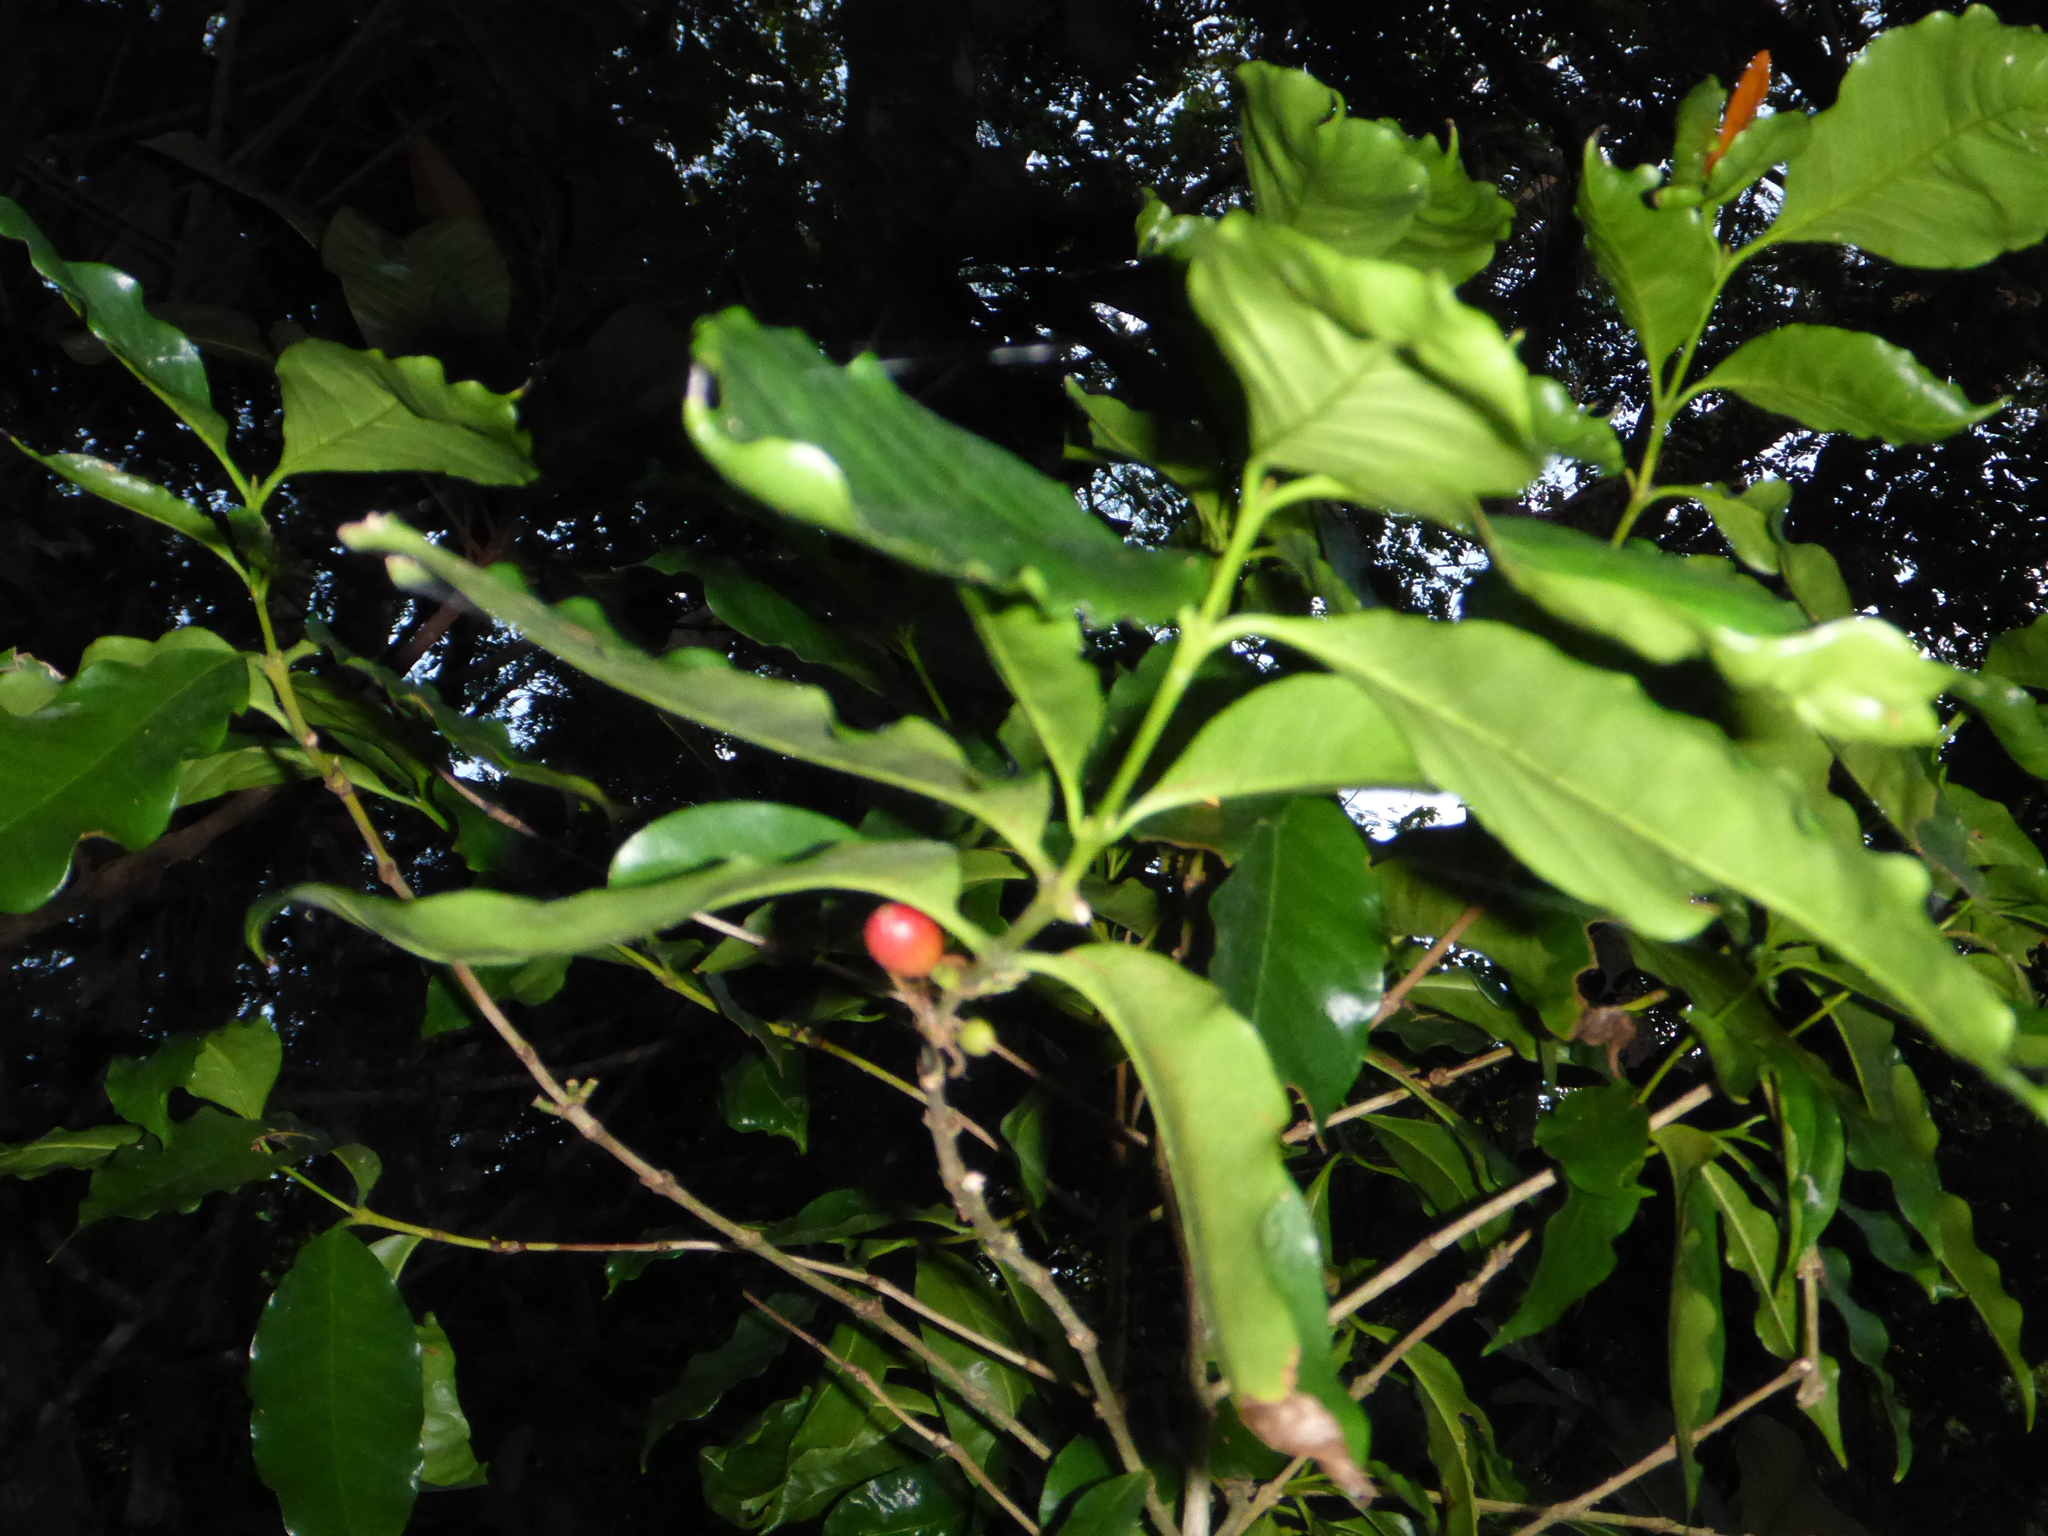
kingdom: Plantae
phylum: Tracheophyta
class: Magnoliopsida
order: Gentianales
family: Rubiaceae
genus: Coffea
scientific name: Coffea arabica
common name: Coffee
